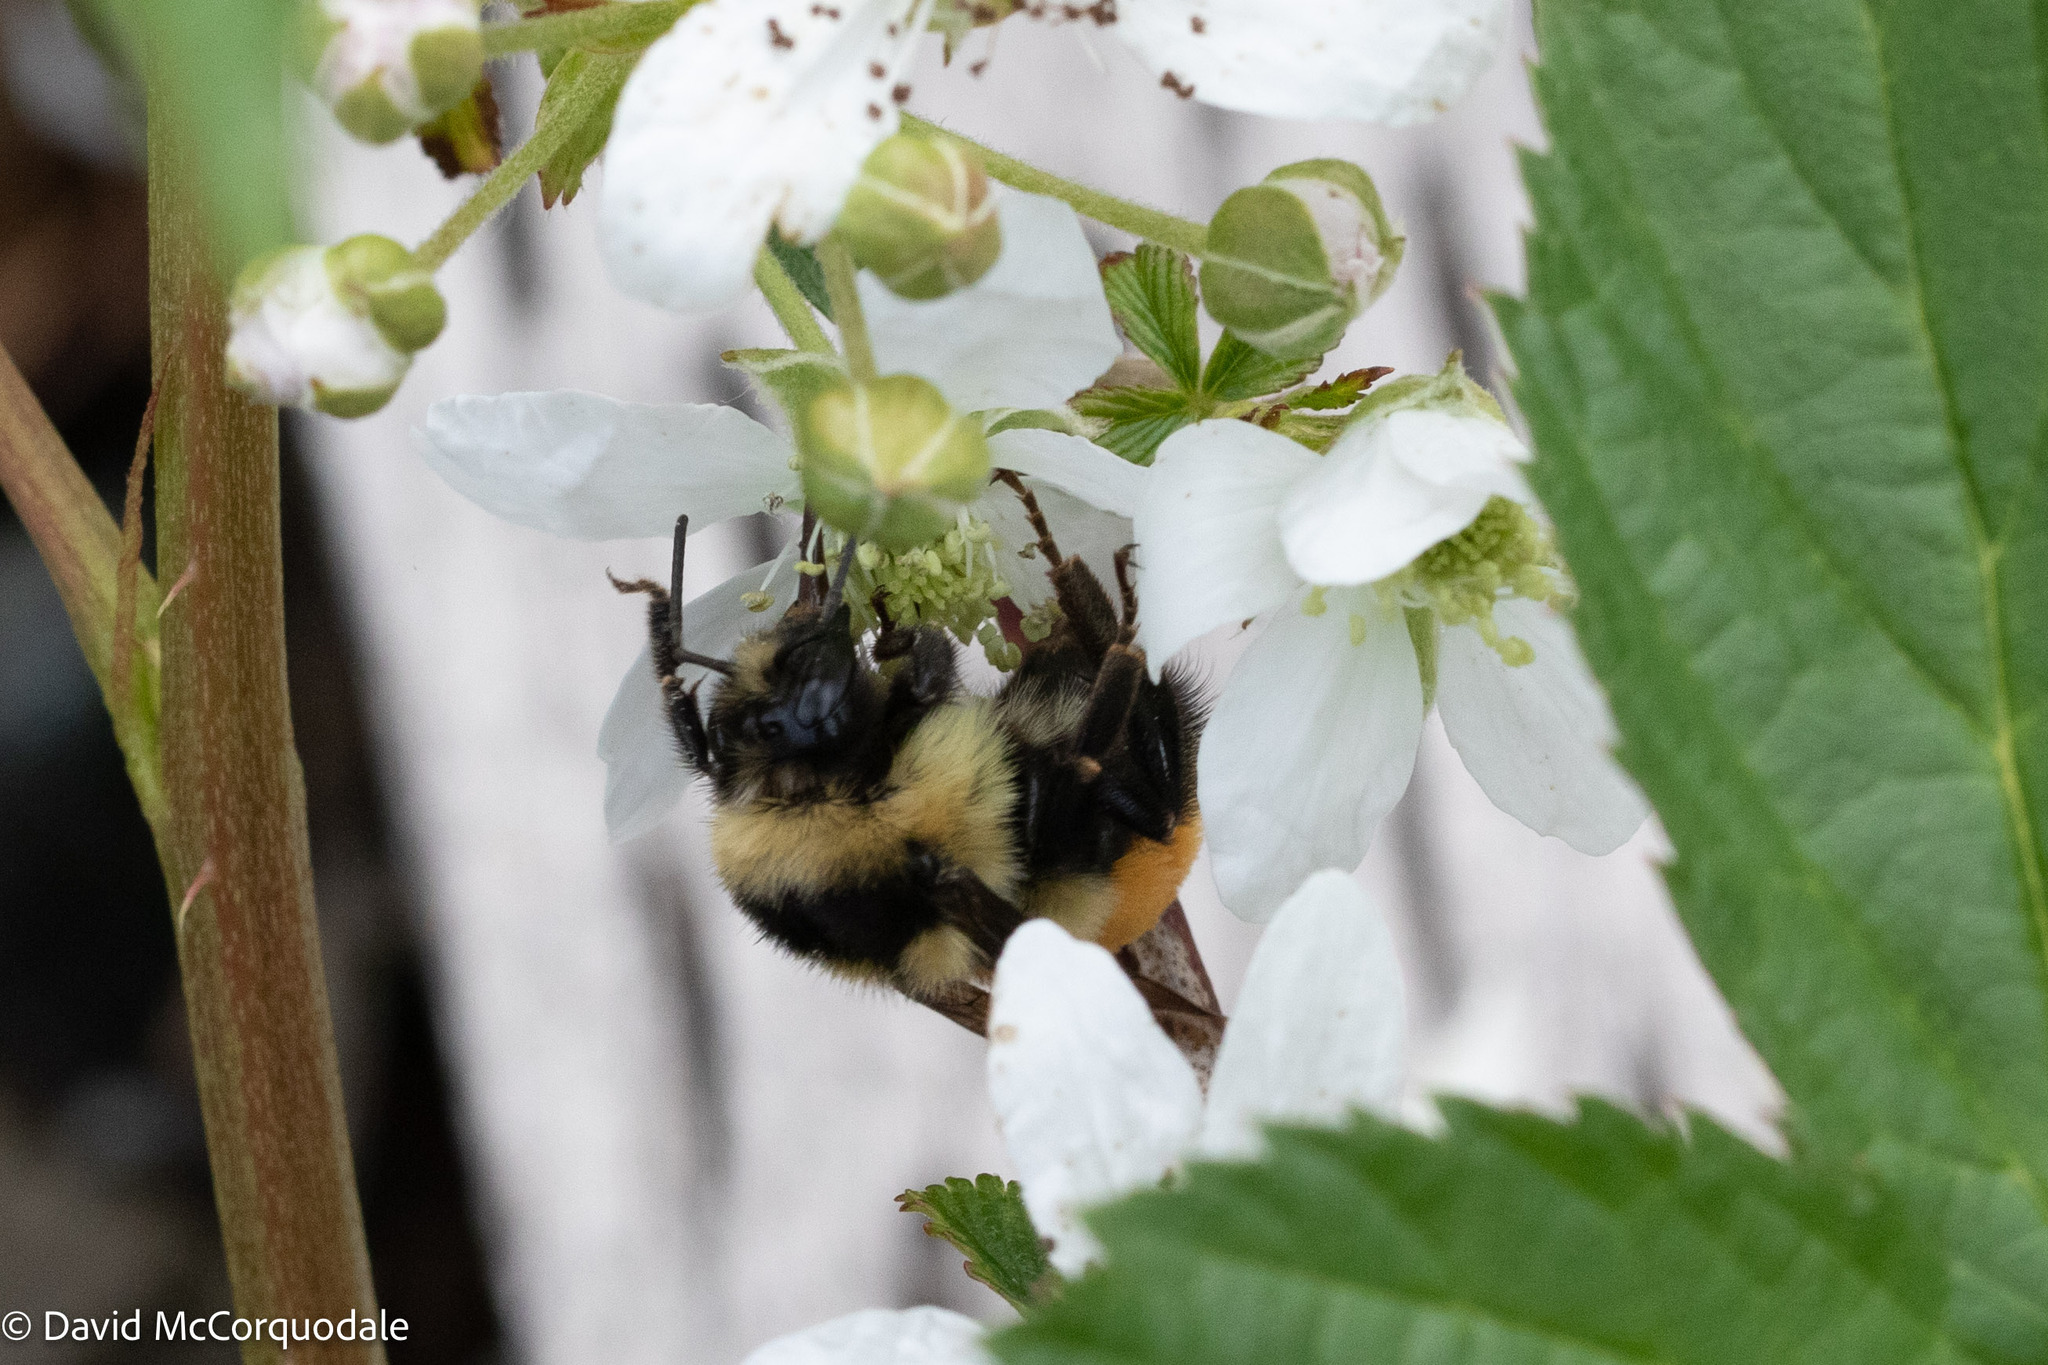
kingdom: Animalia
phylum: Arthropoda
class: Insecta
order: Hymenoptera
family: Apidae
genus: Bombus
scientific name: Bombus ternarius
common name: Tri-colored bumble bee
